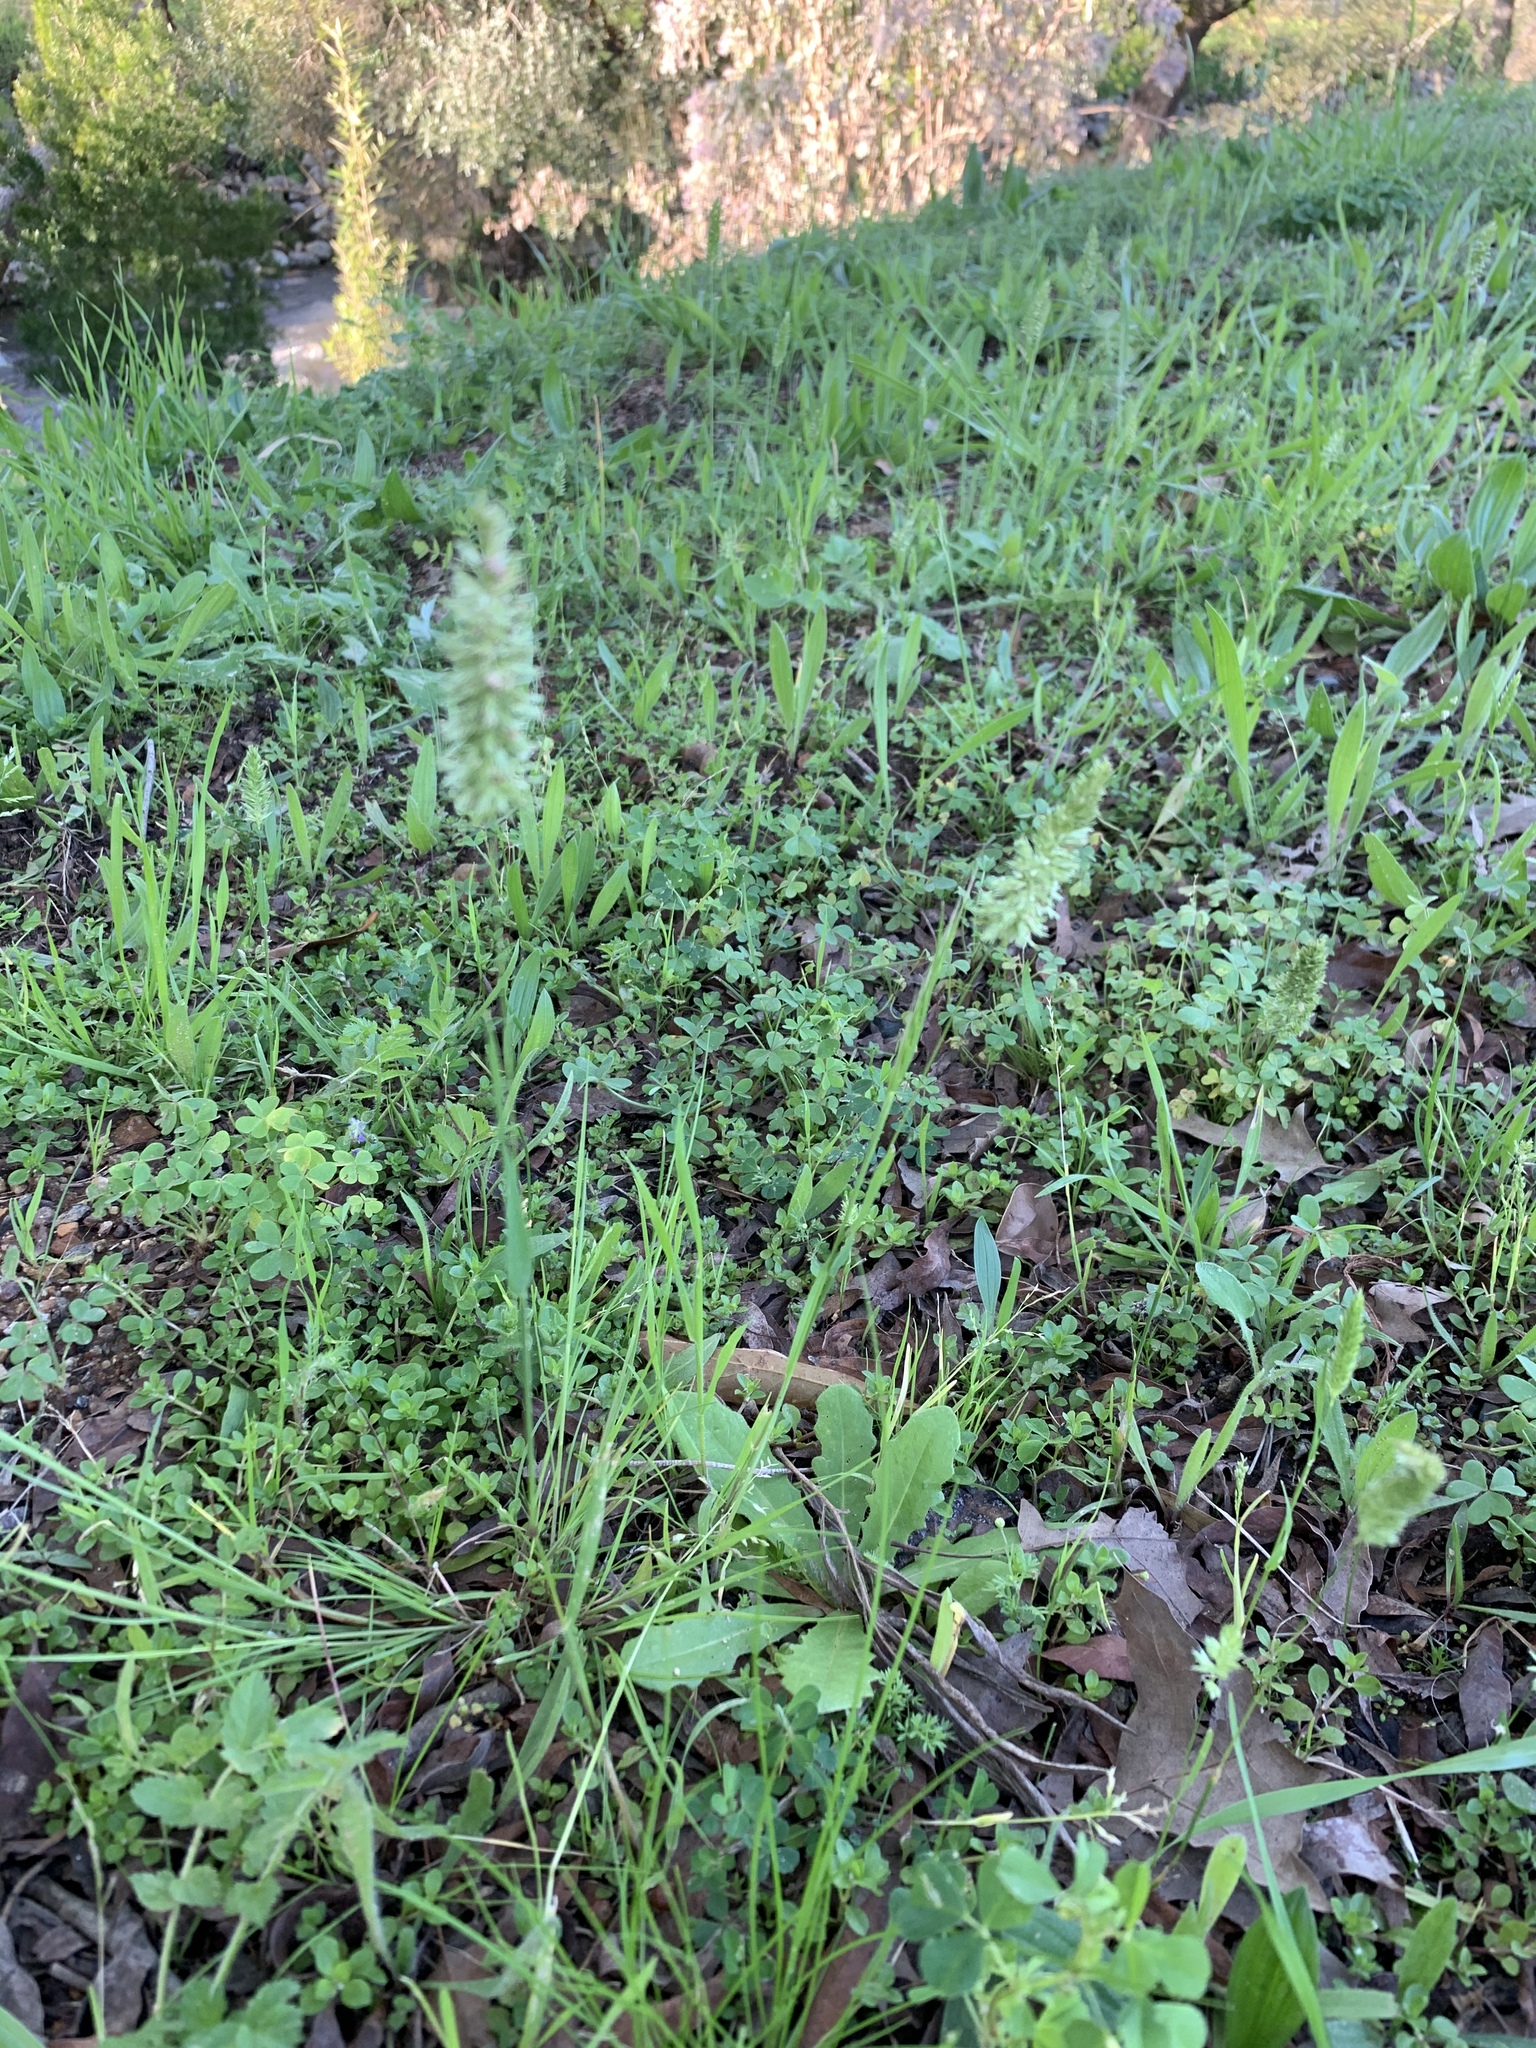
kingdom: Plantae
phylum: Tracheophyta
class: Liliopsida
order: Poales
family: Poaceae
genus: Rostraria
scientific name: Rostraria cristata
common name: Mediterranean hair-grass
